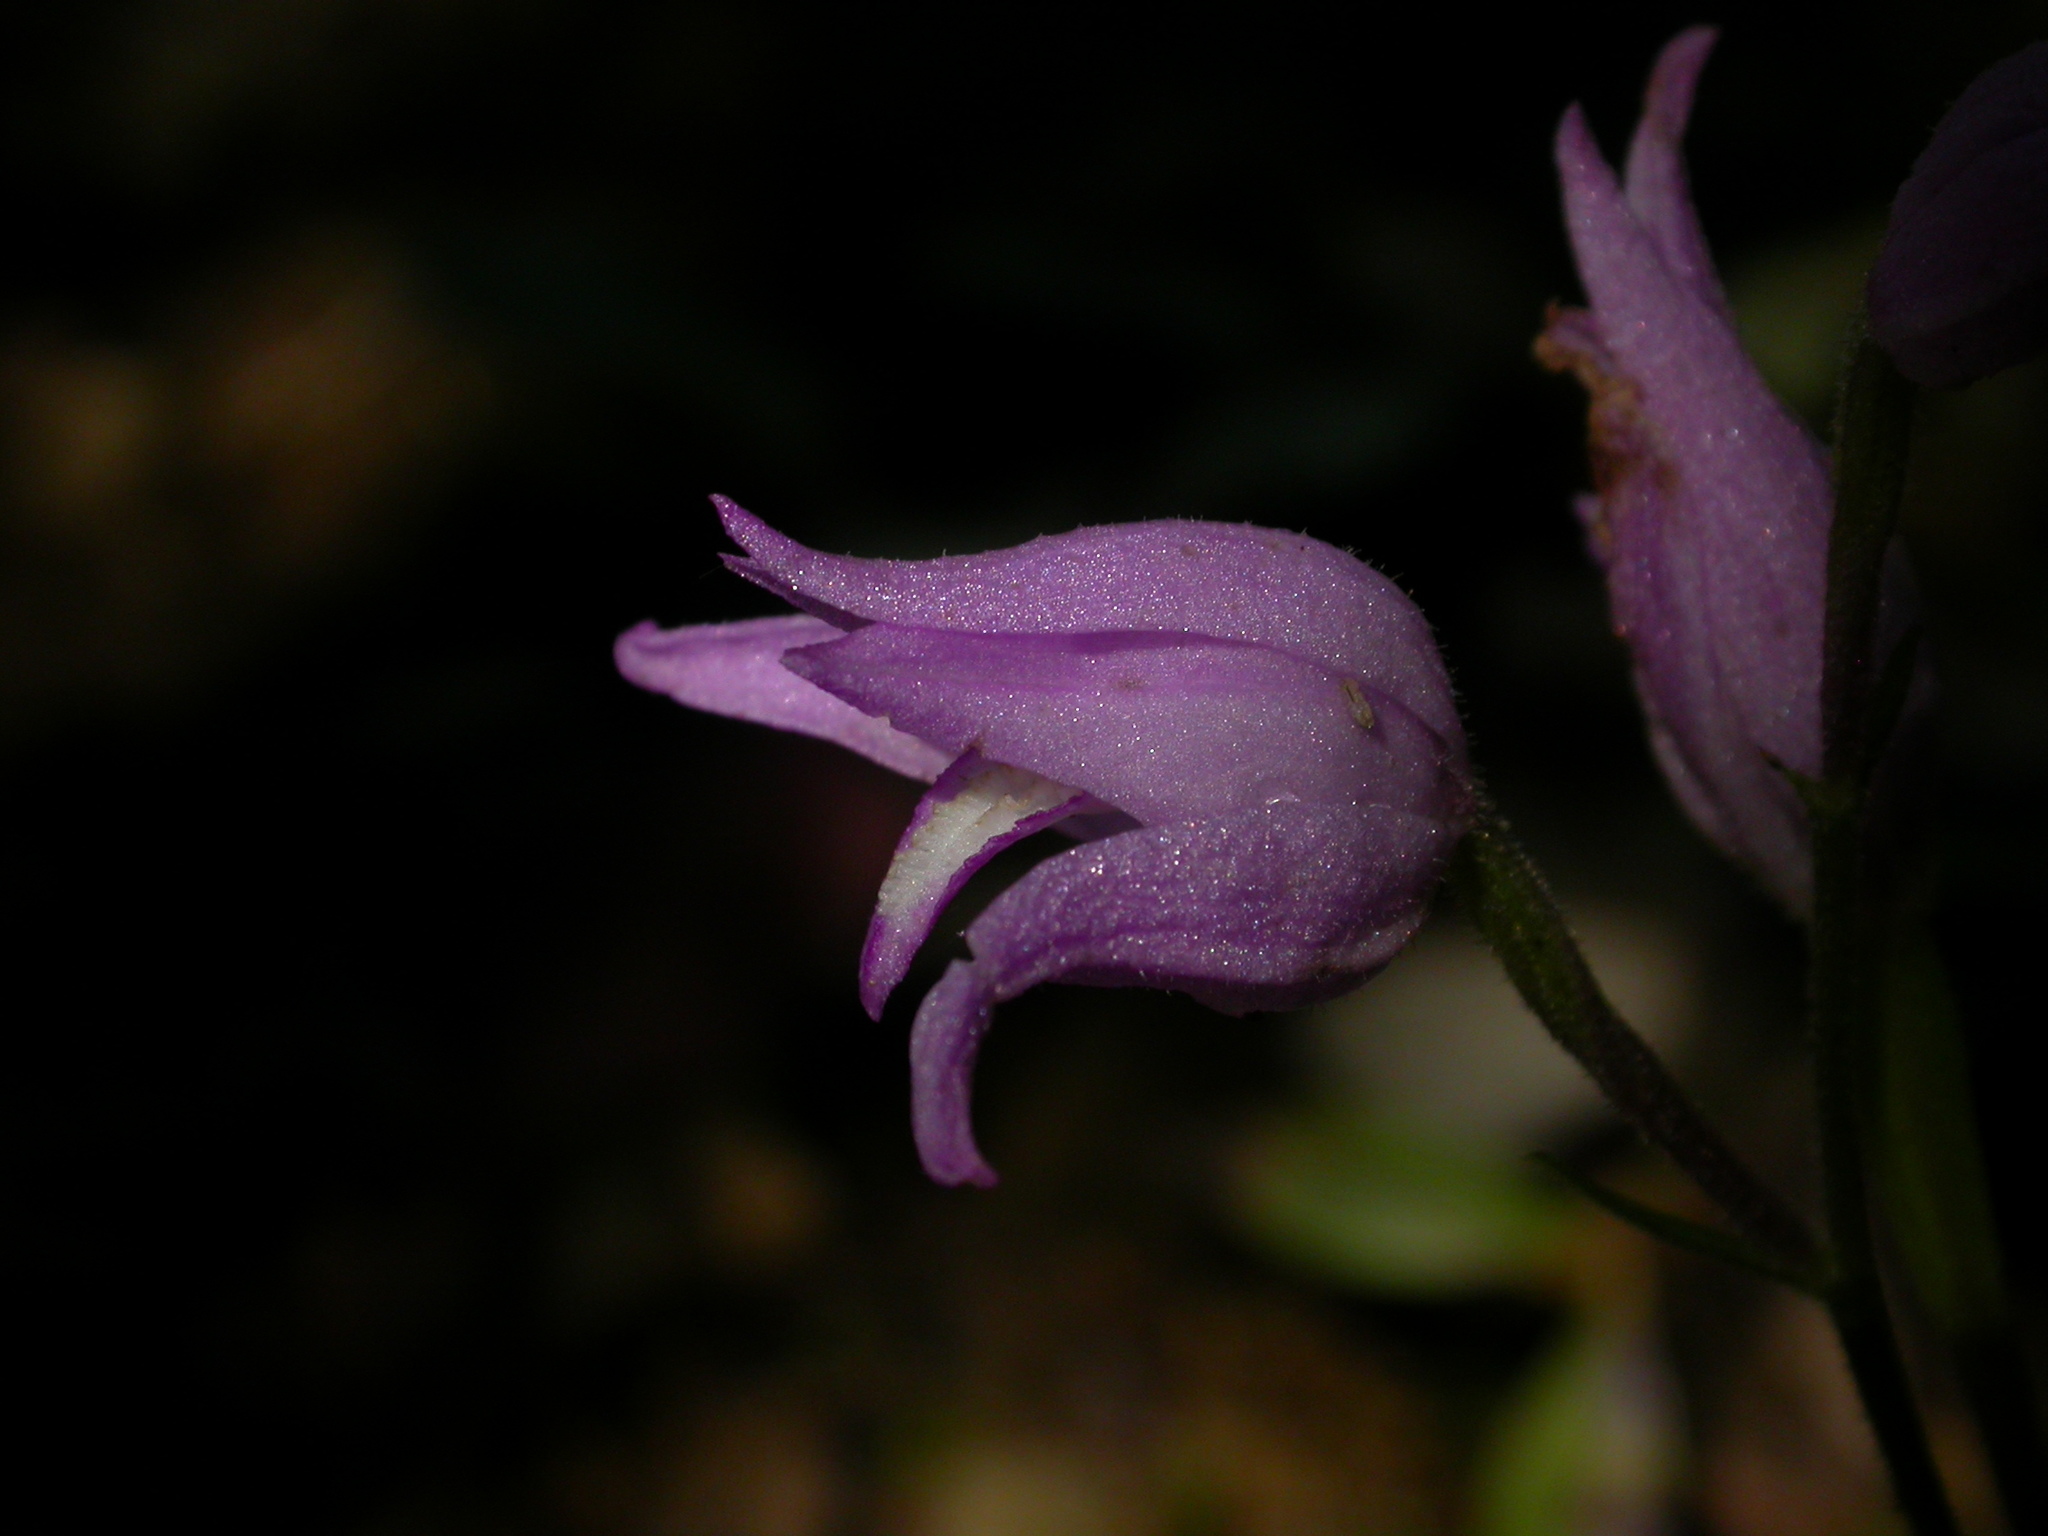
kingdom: Plantae
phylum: Tracheophyta
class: Liliopsida
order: Asparagales
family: Orchidaceae
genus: Cephalanthera
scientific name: Cephalanthera rubra
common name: Red helleborine
